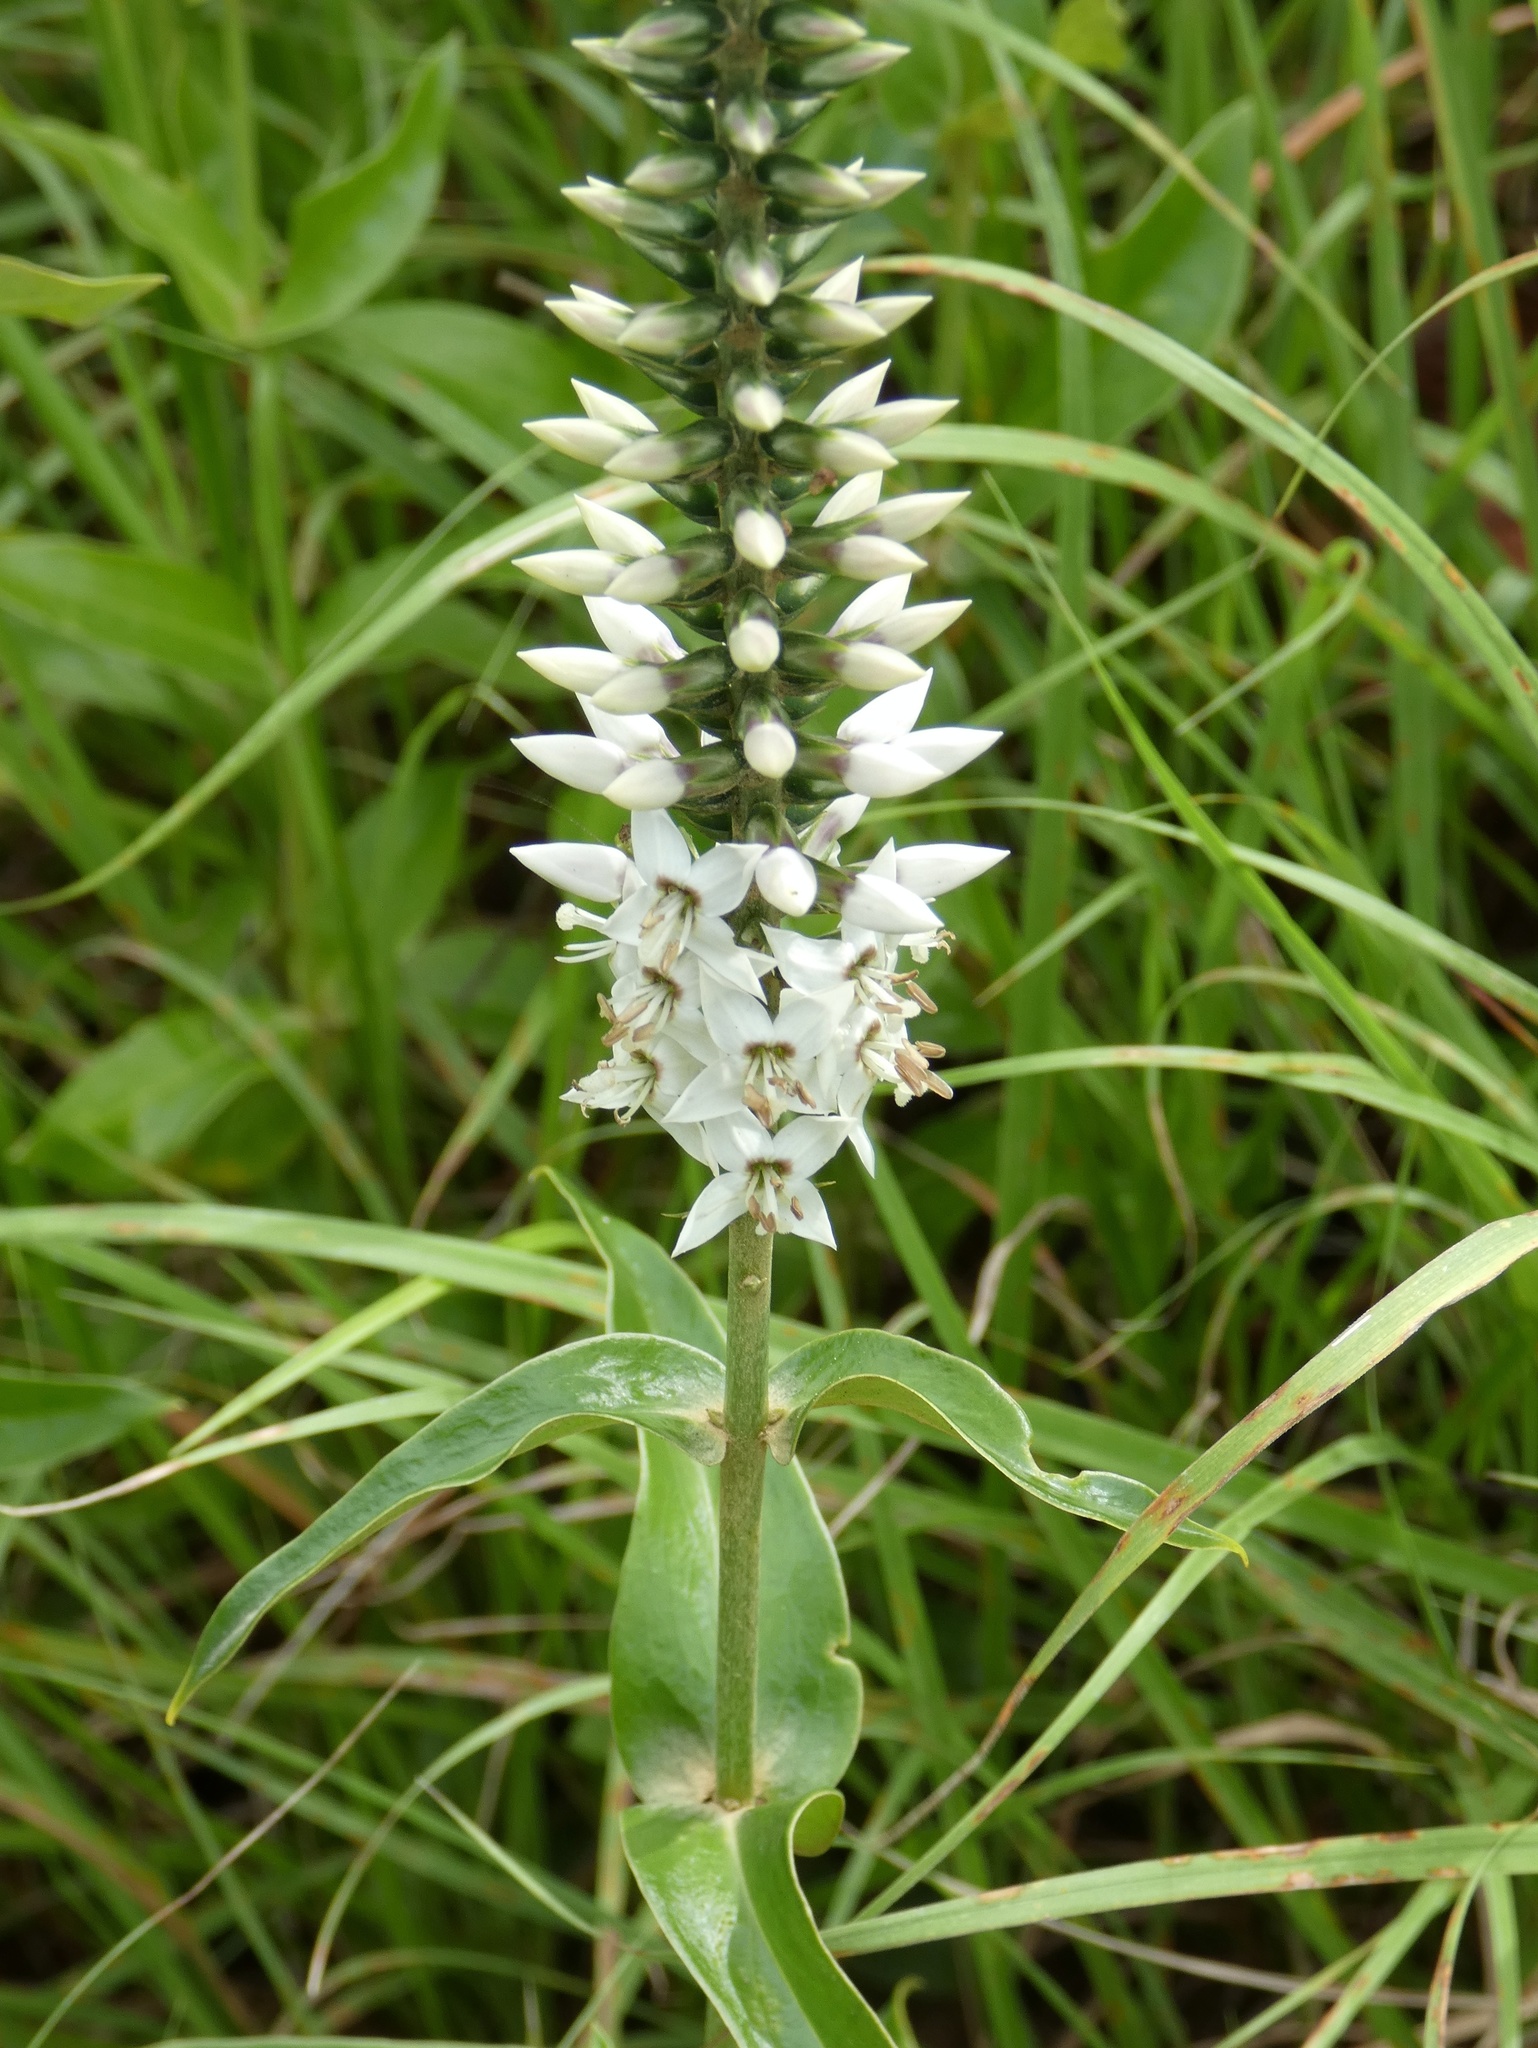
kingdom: Plantae
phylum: Tracheophyta
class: Magnoliopsida
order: Gentianales
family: Gentianaceae
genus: Coutoubea
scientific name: Coutoubea spicata
